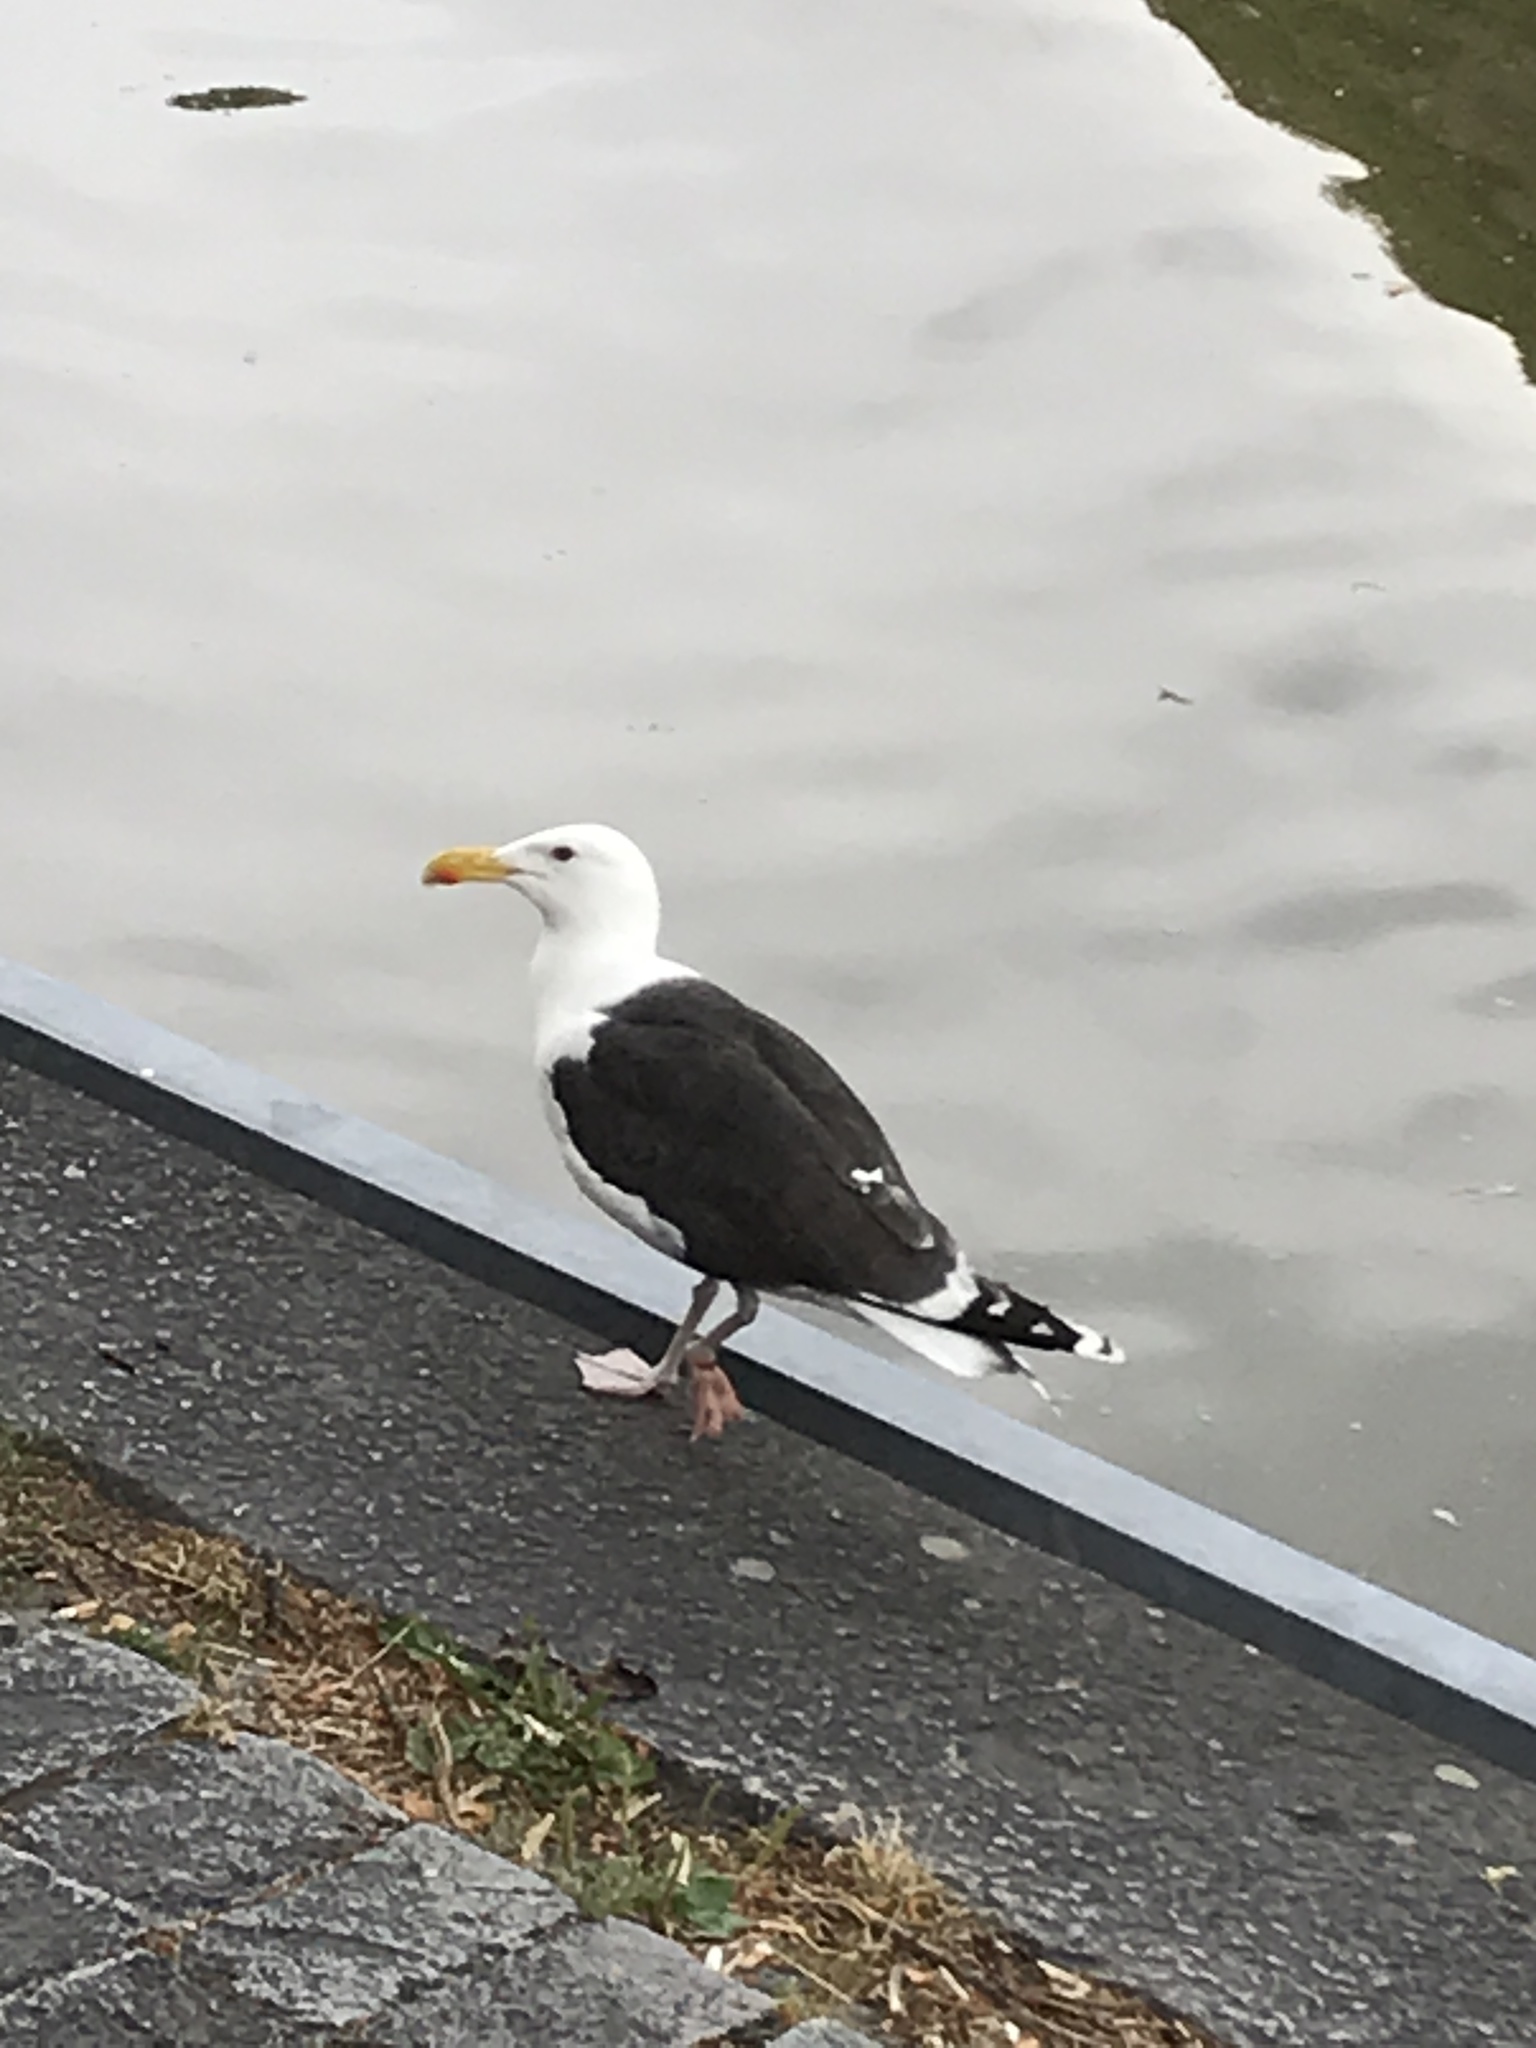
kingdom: Animalia
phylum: Chordata
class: Aves
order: Charadriiformes
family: Laridae
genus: Larus
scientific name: Larus marinus
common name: Great black-backed gull
